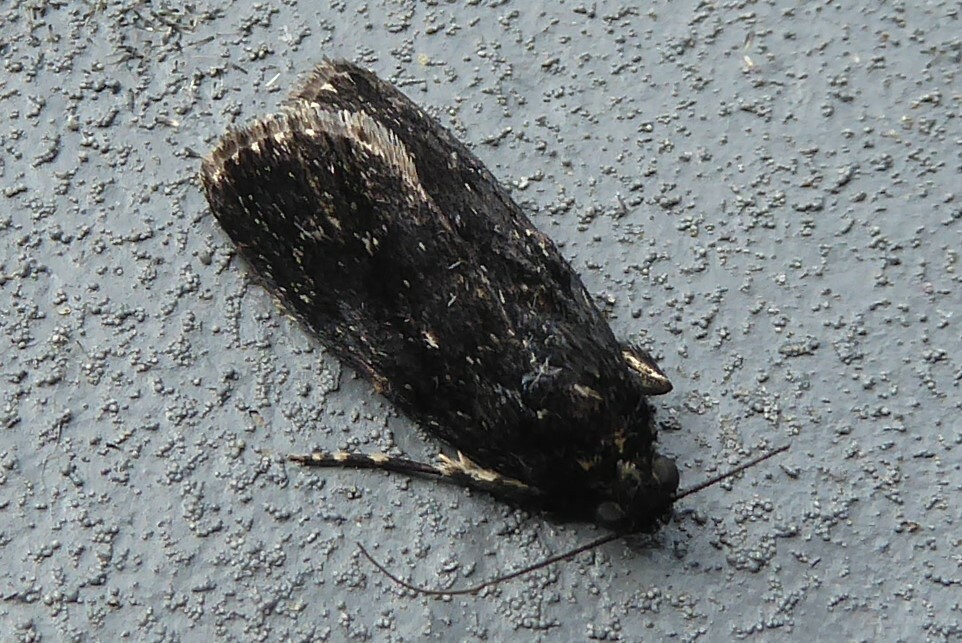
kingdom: Animalia
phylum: Arthropoda
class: Insecta
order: Lepidoptera
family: Pyralidae
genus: Stericta
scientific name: Stericta carbonalis
